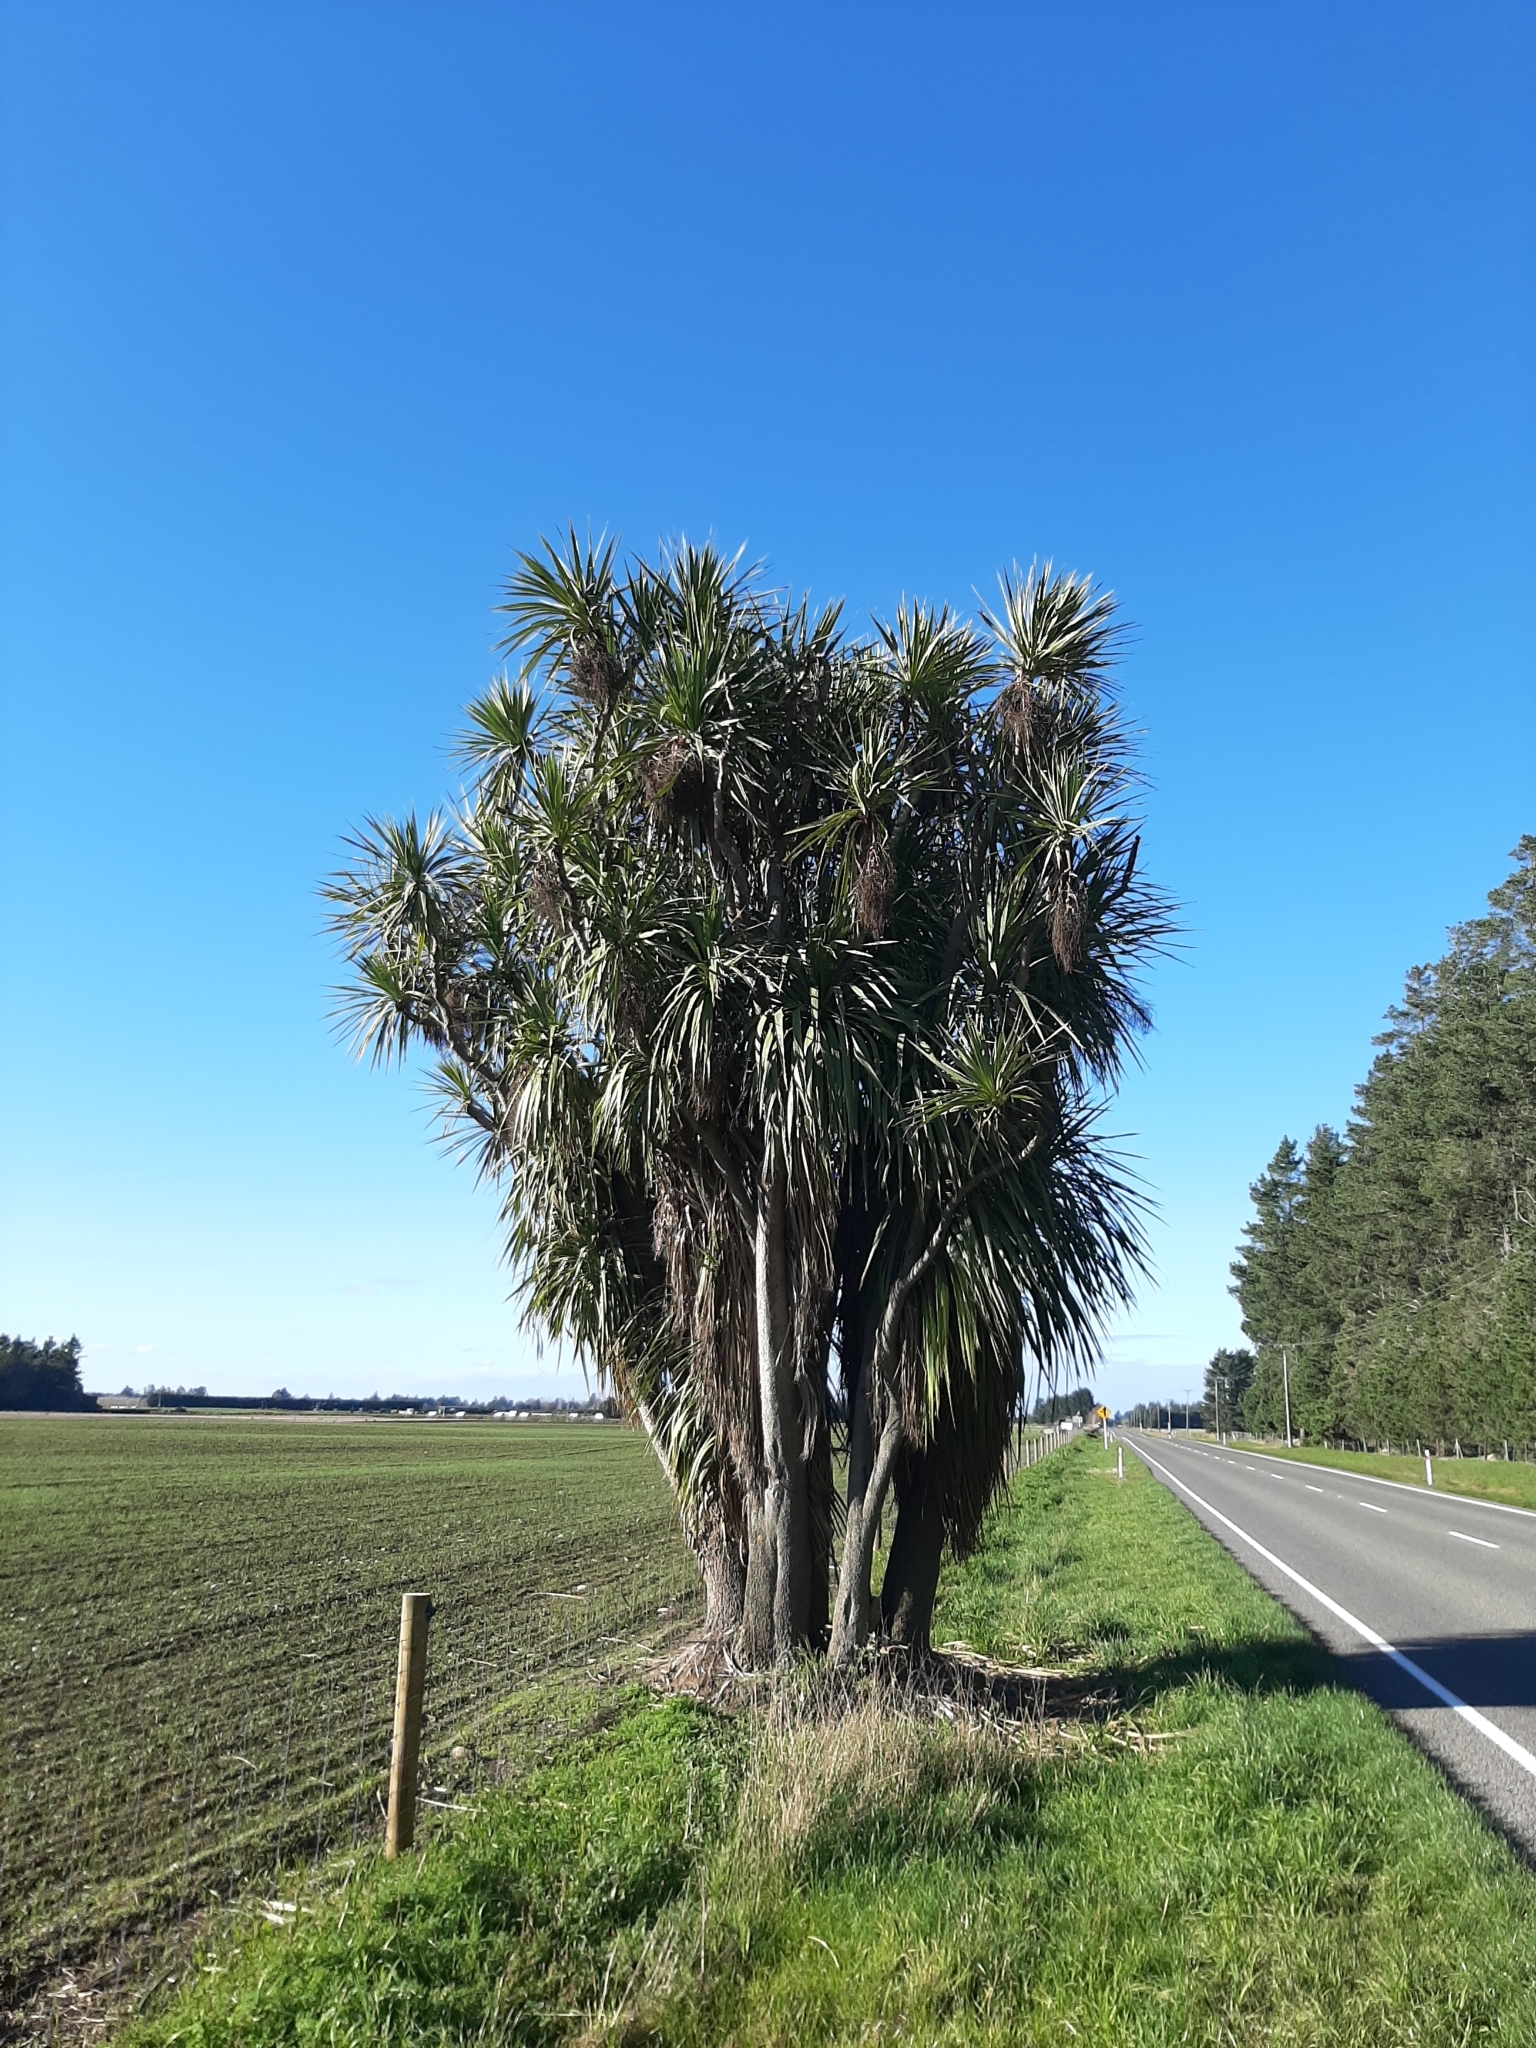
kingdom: Plantae
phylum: Tracheophyta
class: Liliopsida
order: Asparagales
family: Asparagaceae
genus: Cordyline
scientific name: Cordyline australis
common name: Cabbage-palm
